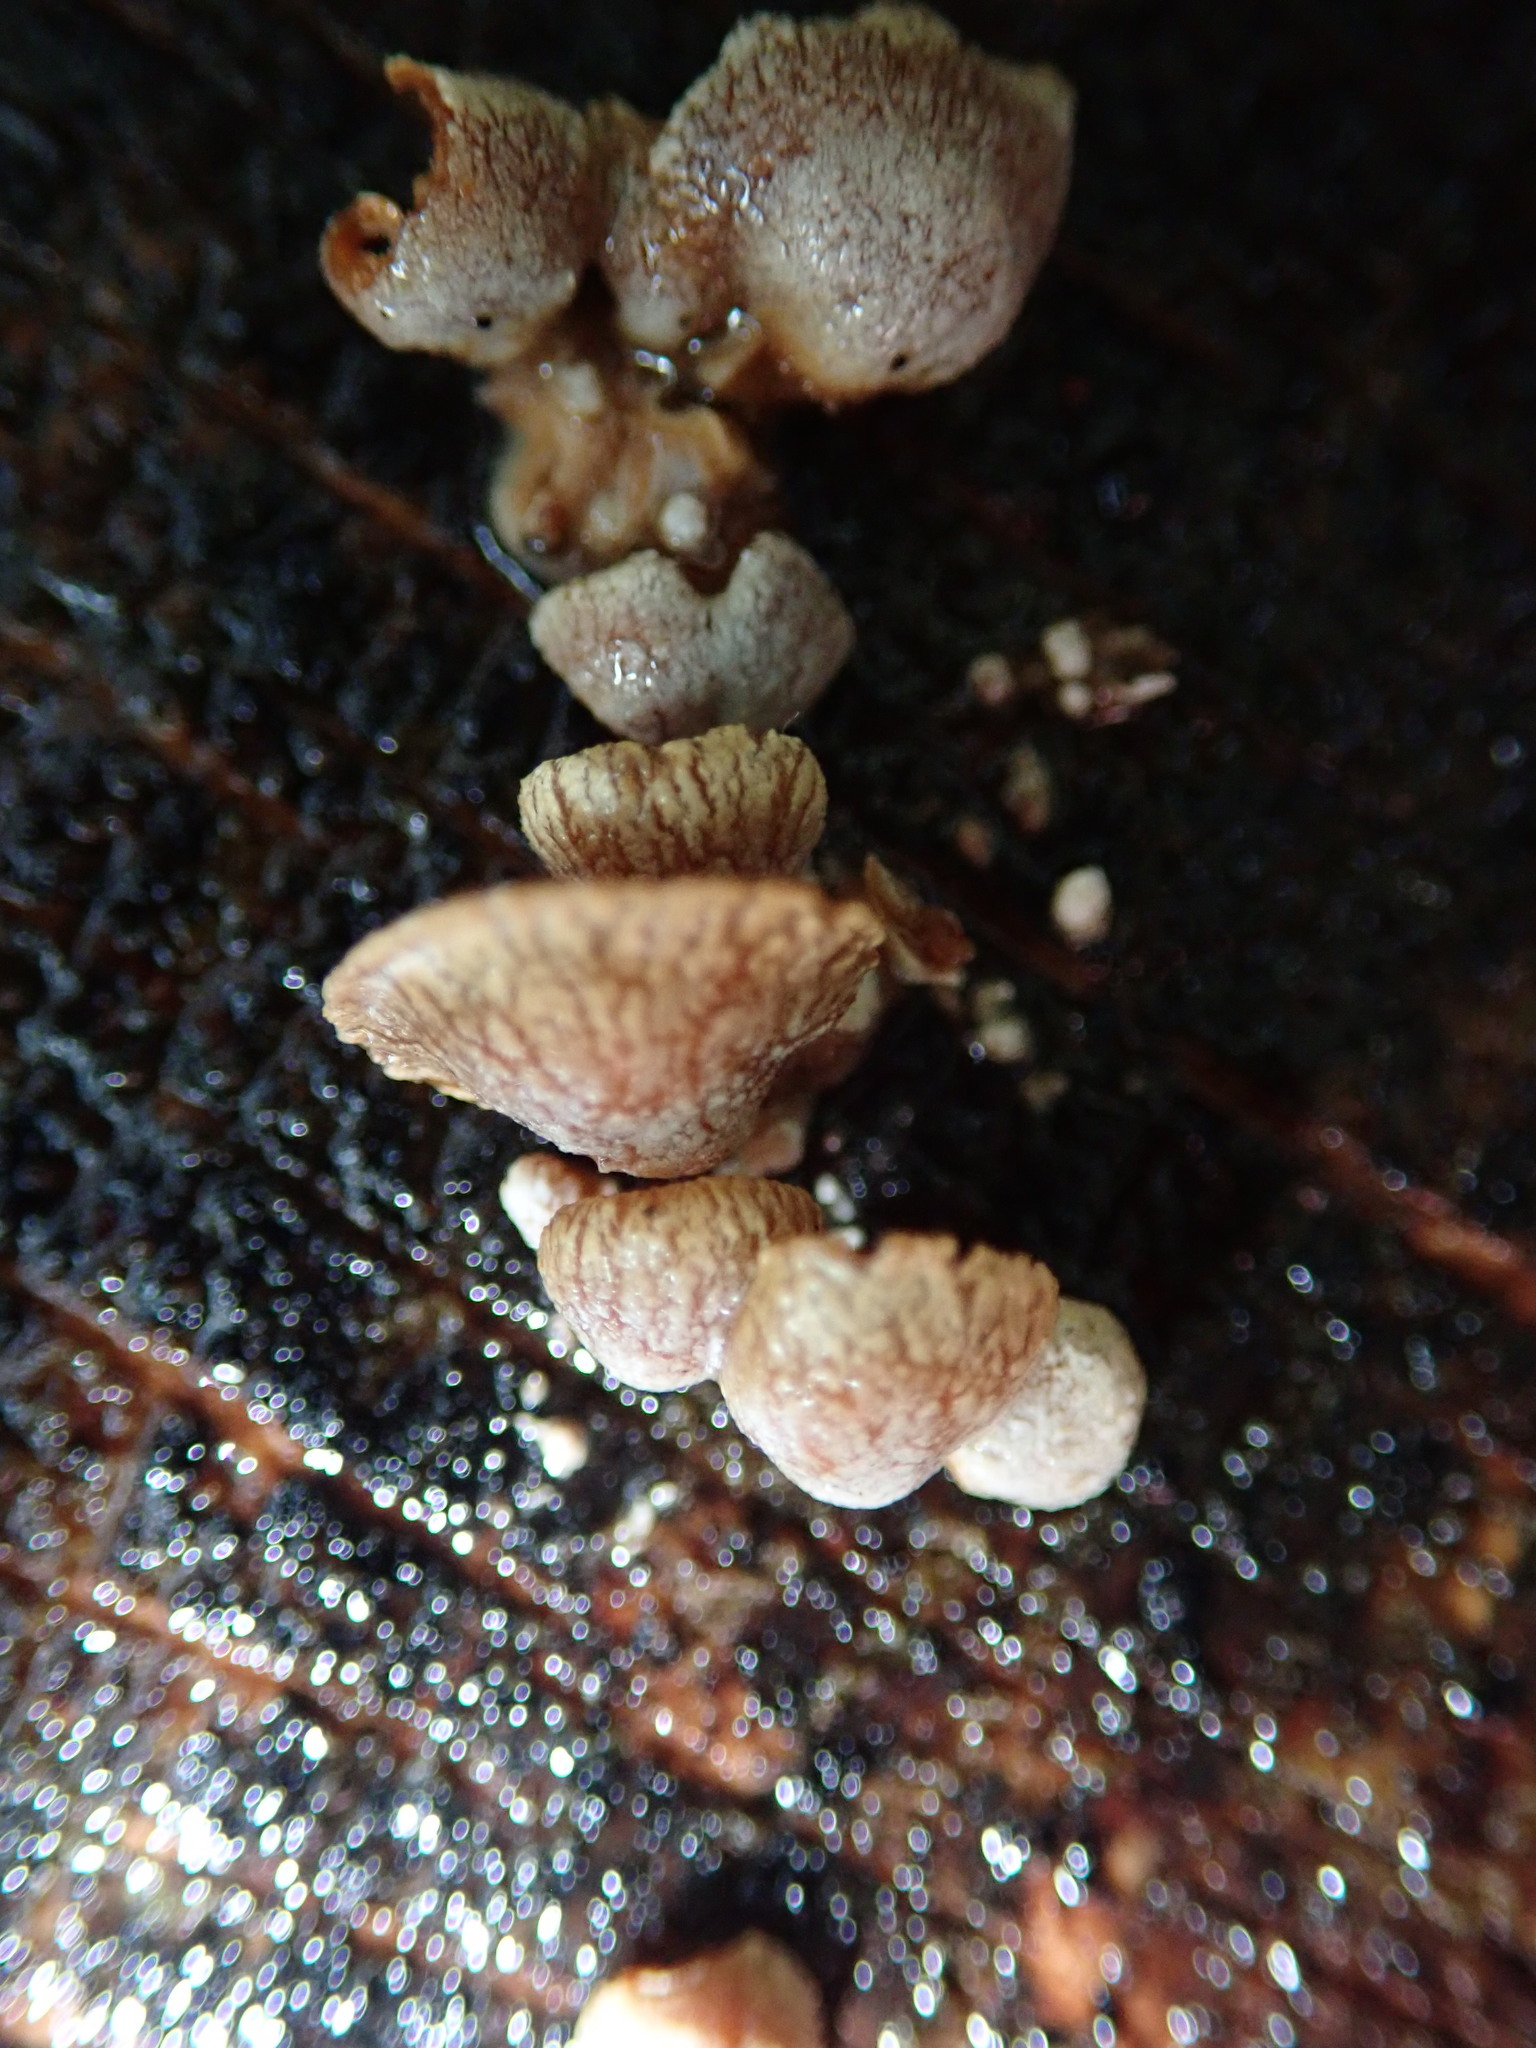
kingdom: Fungi
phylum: Basidiomycota
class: Agaricomycetes
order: Agaricales
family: Mycenaceae
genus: Panellus
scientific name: Panellus stipticus
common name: Bitter oysterling
